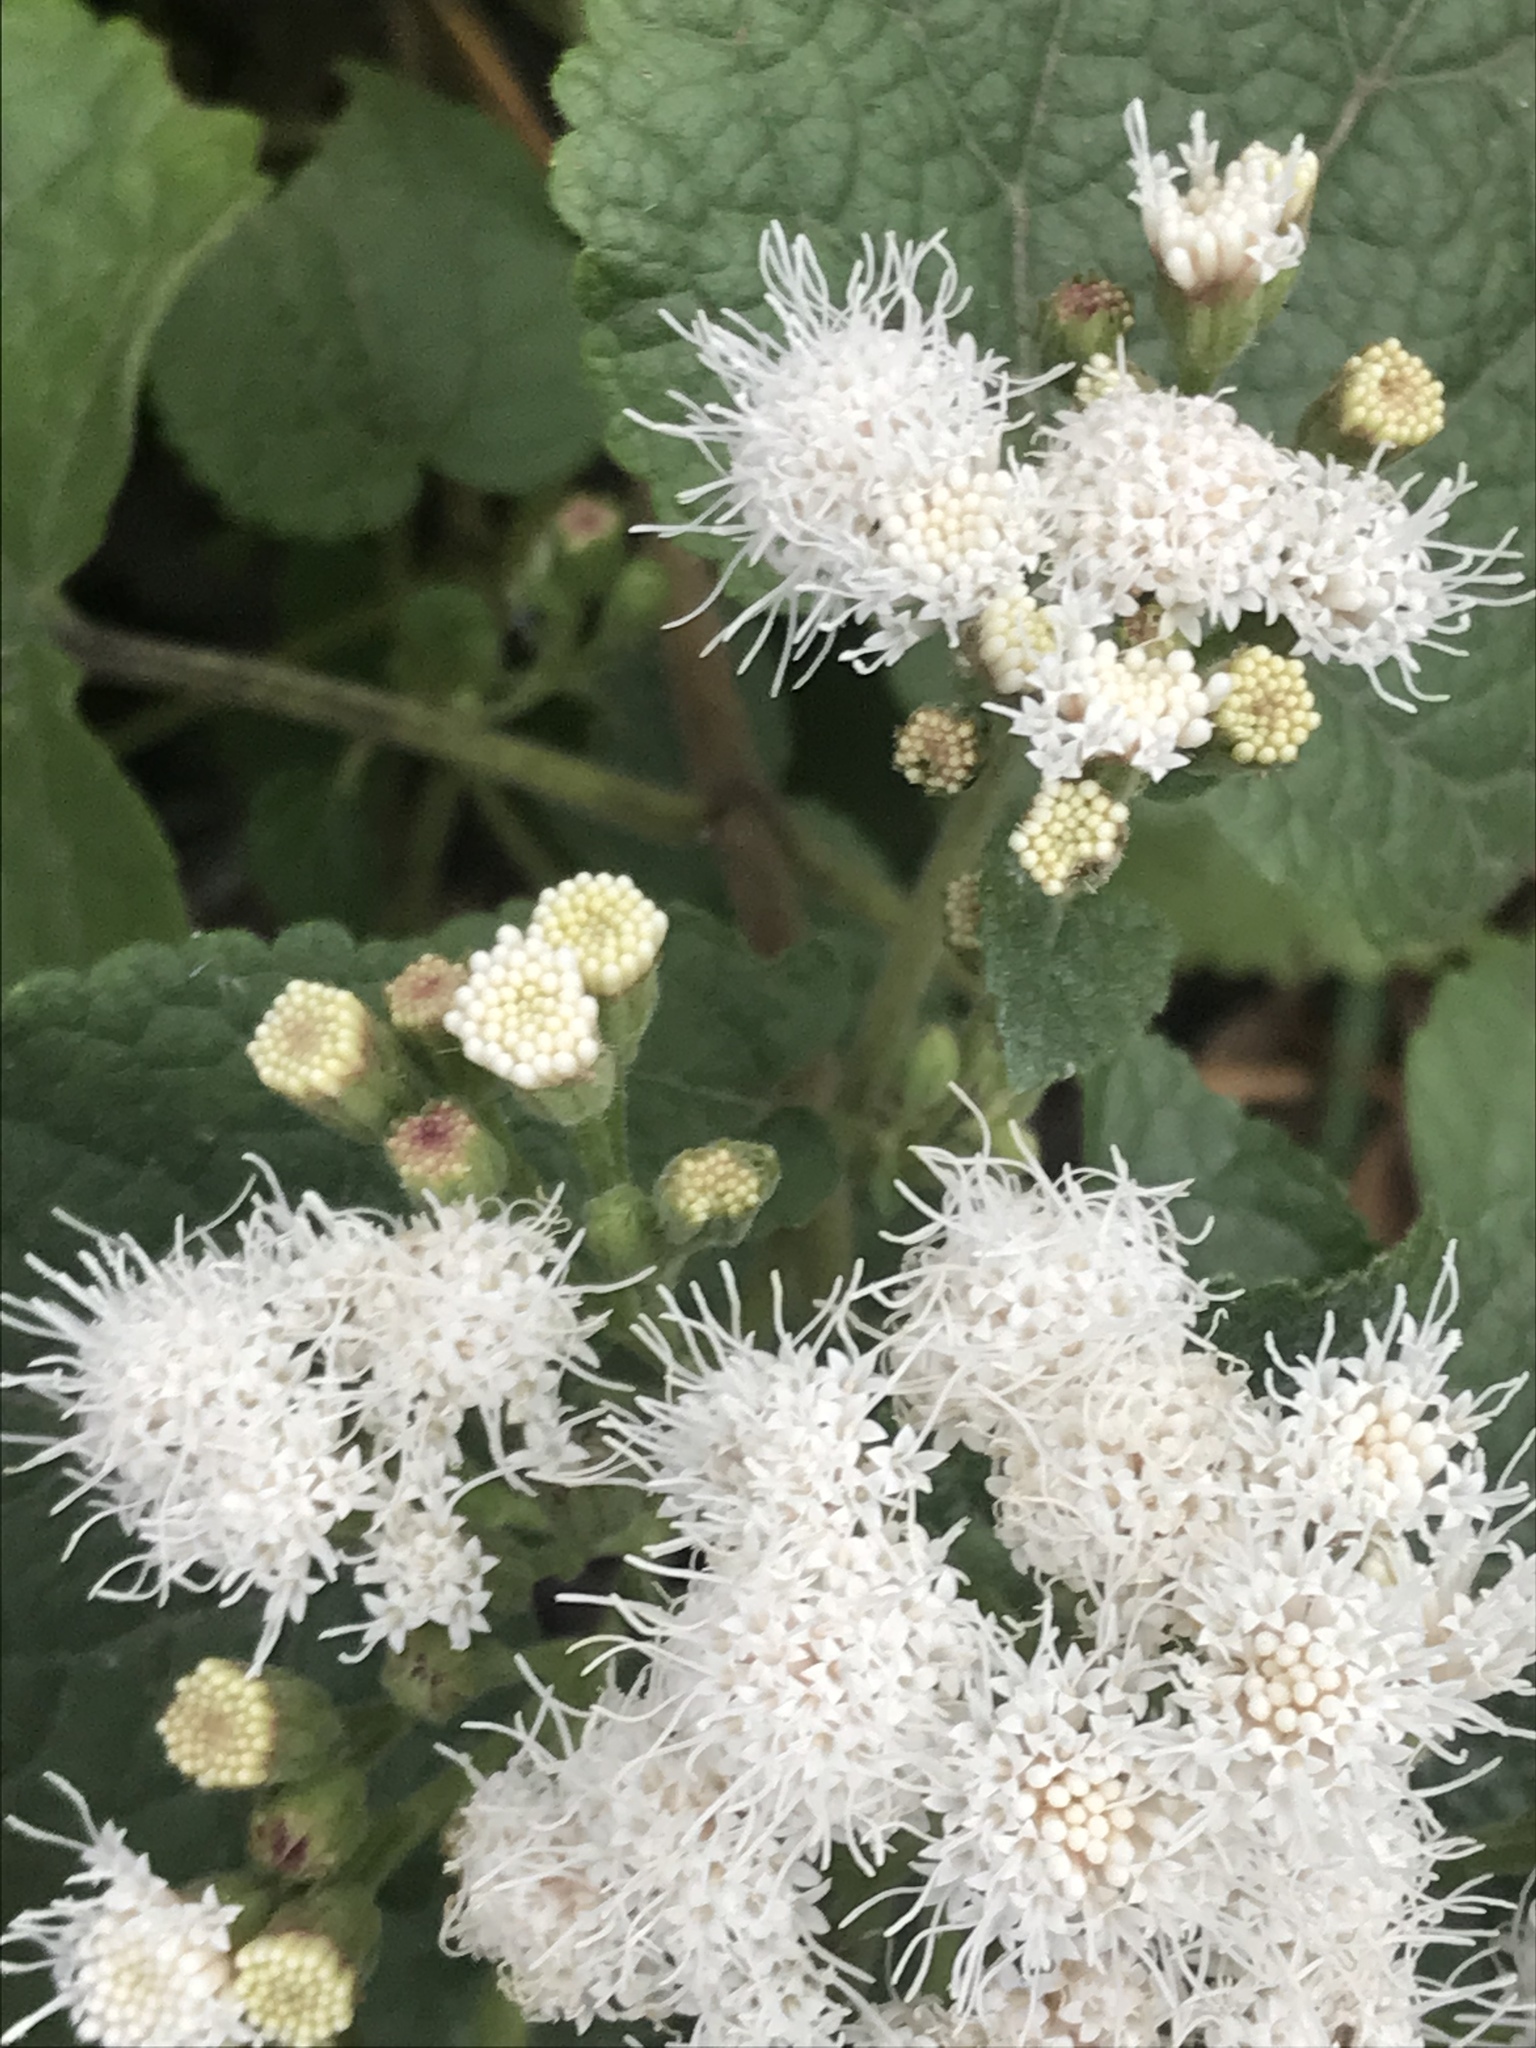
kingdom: Plantae
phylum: Tracheophyta
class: Magnoliopsida
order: Asterales
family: Asteraceae
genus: Ageratina
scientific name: Ageratina petiolaris
